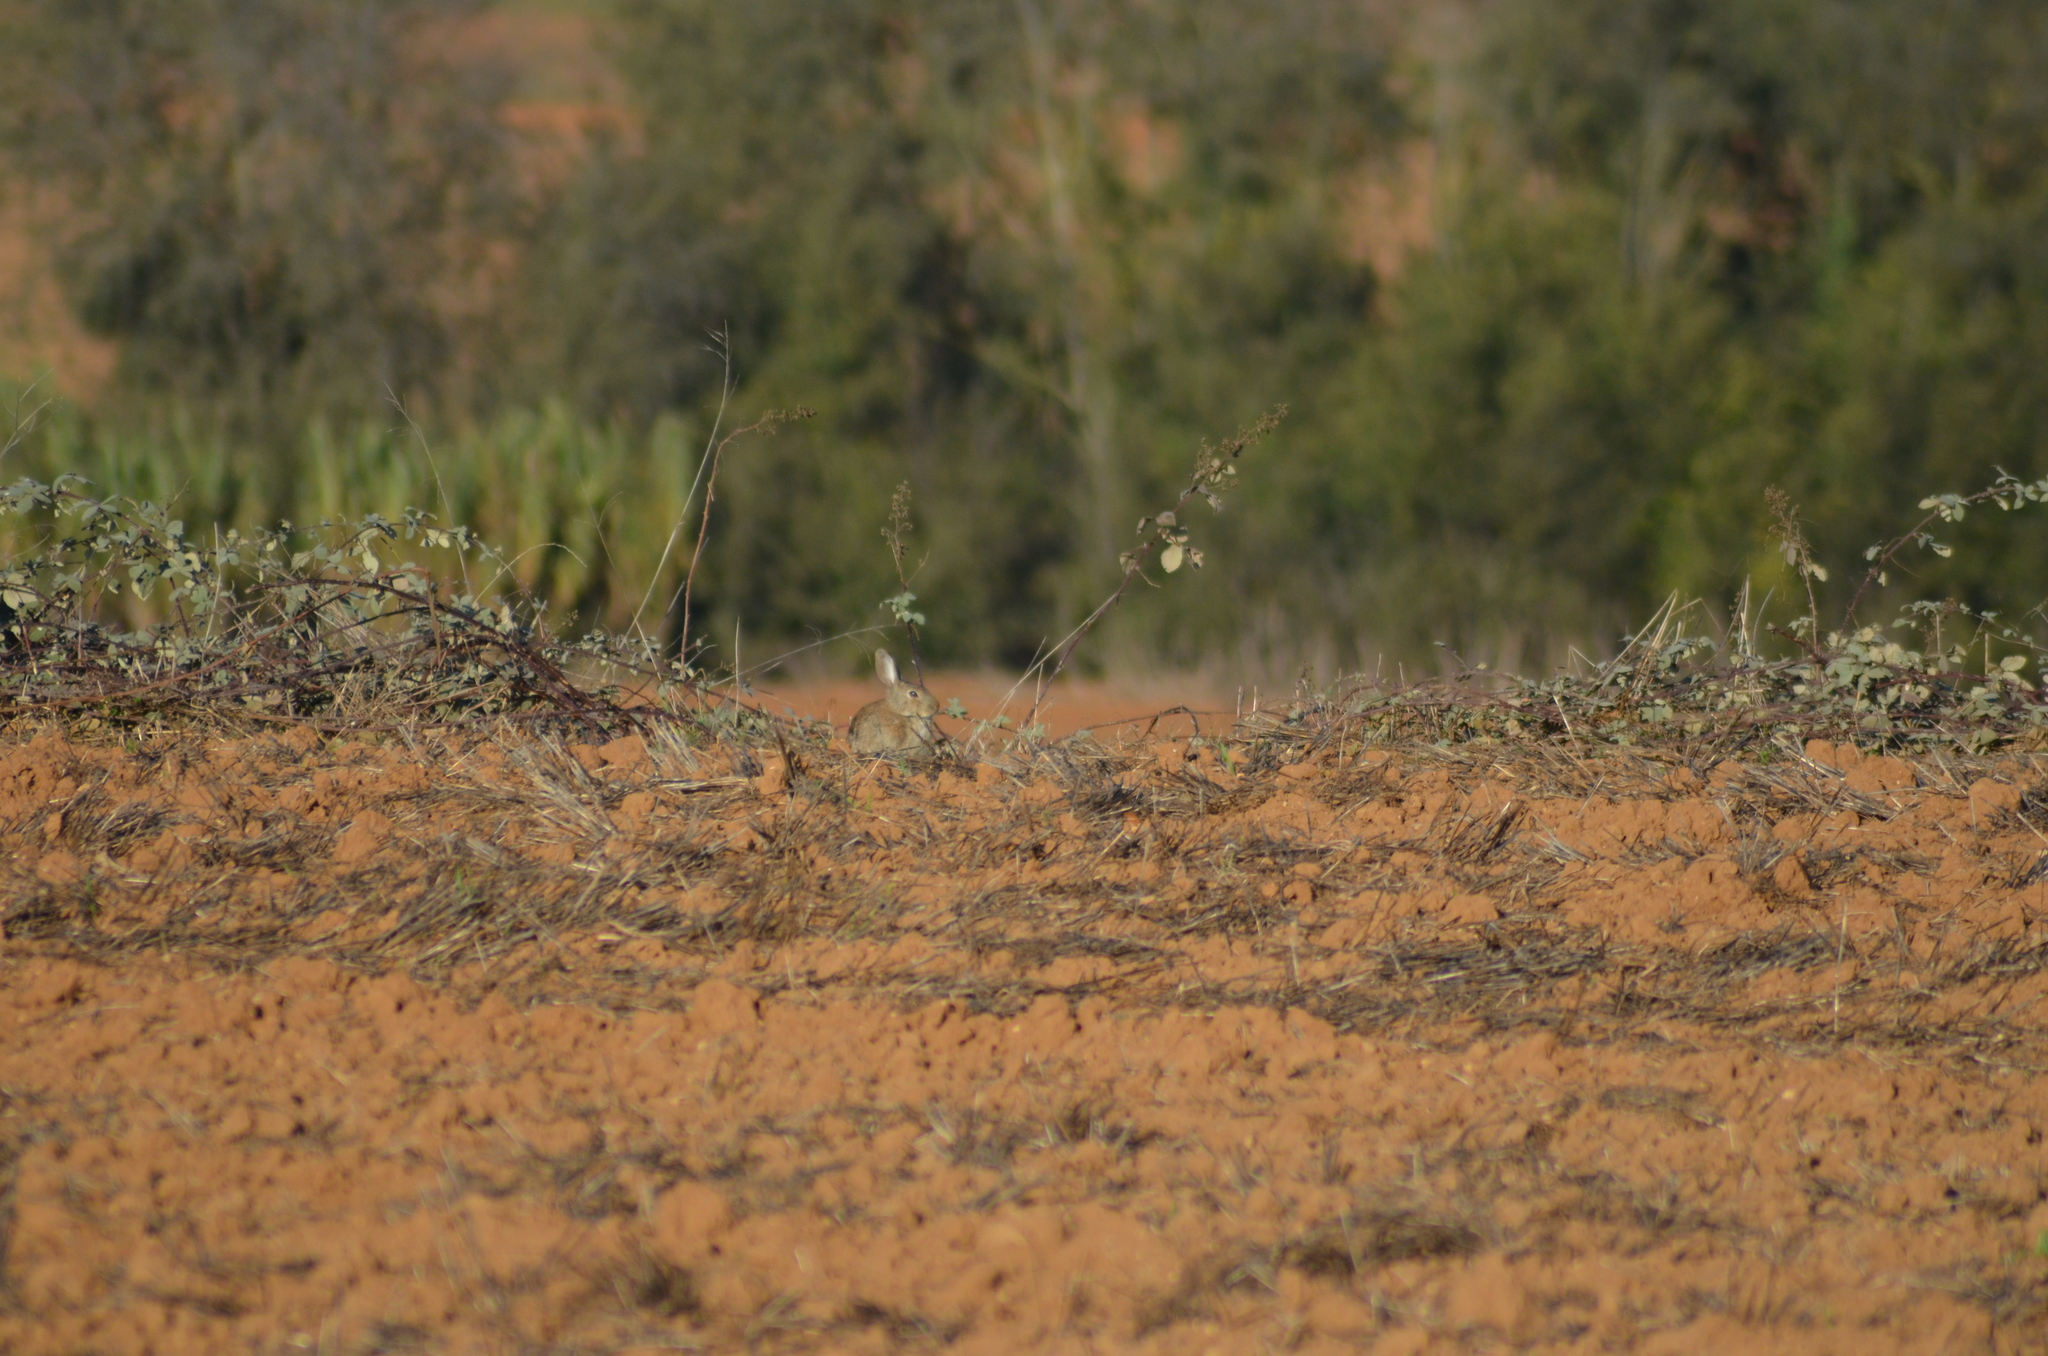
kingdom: Animalia
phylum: Chordata
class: Mammalia
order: Lagomorpha
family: Leporidae
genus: Oryctolagus
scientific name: Oryctolagus cuniculus
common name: European rabbit
